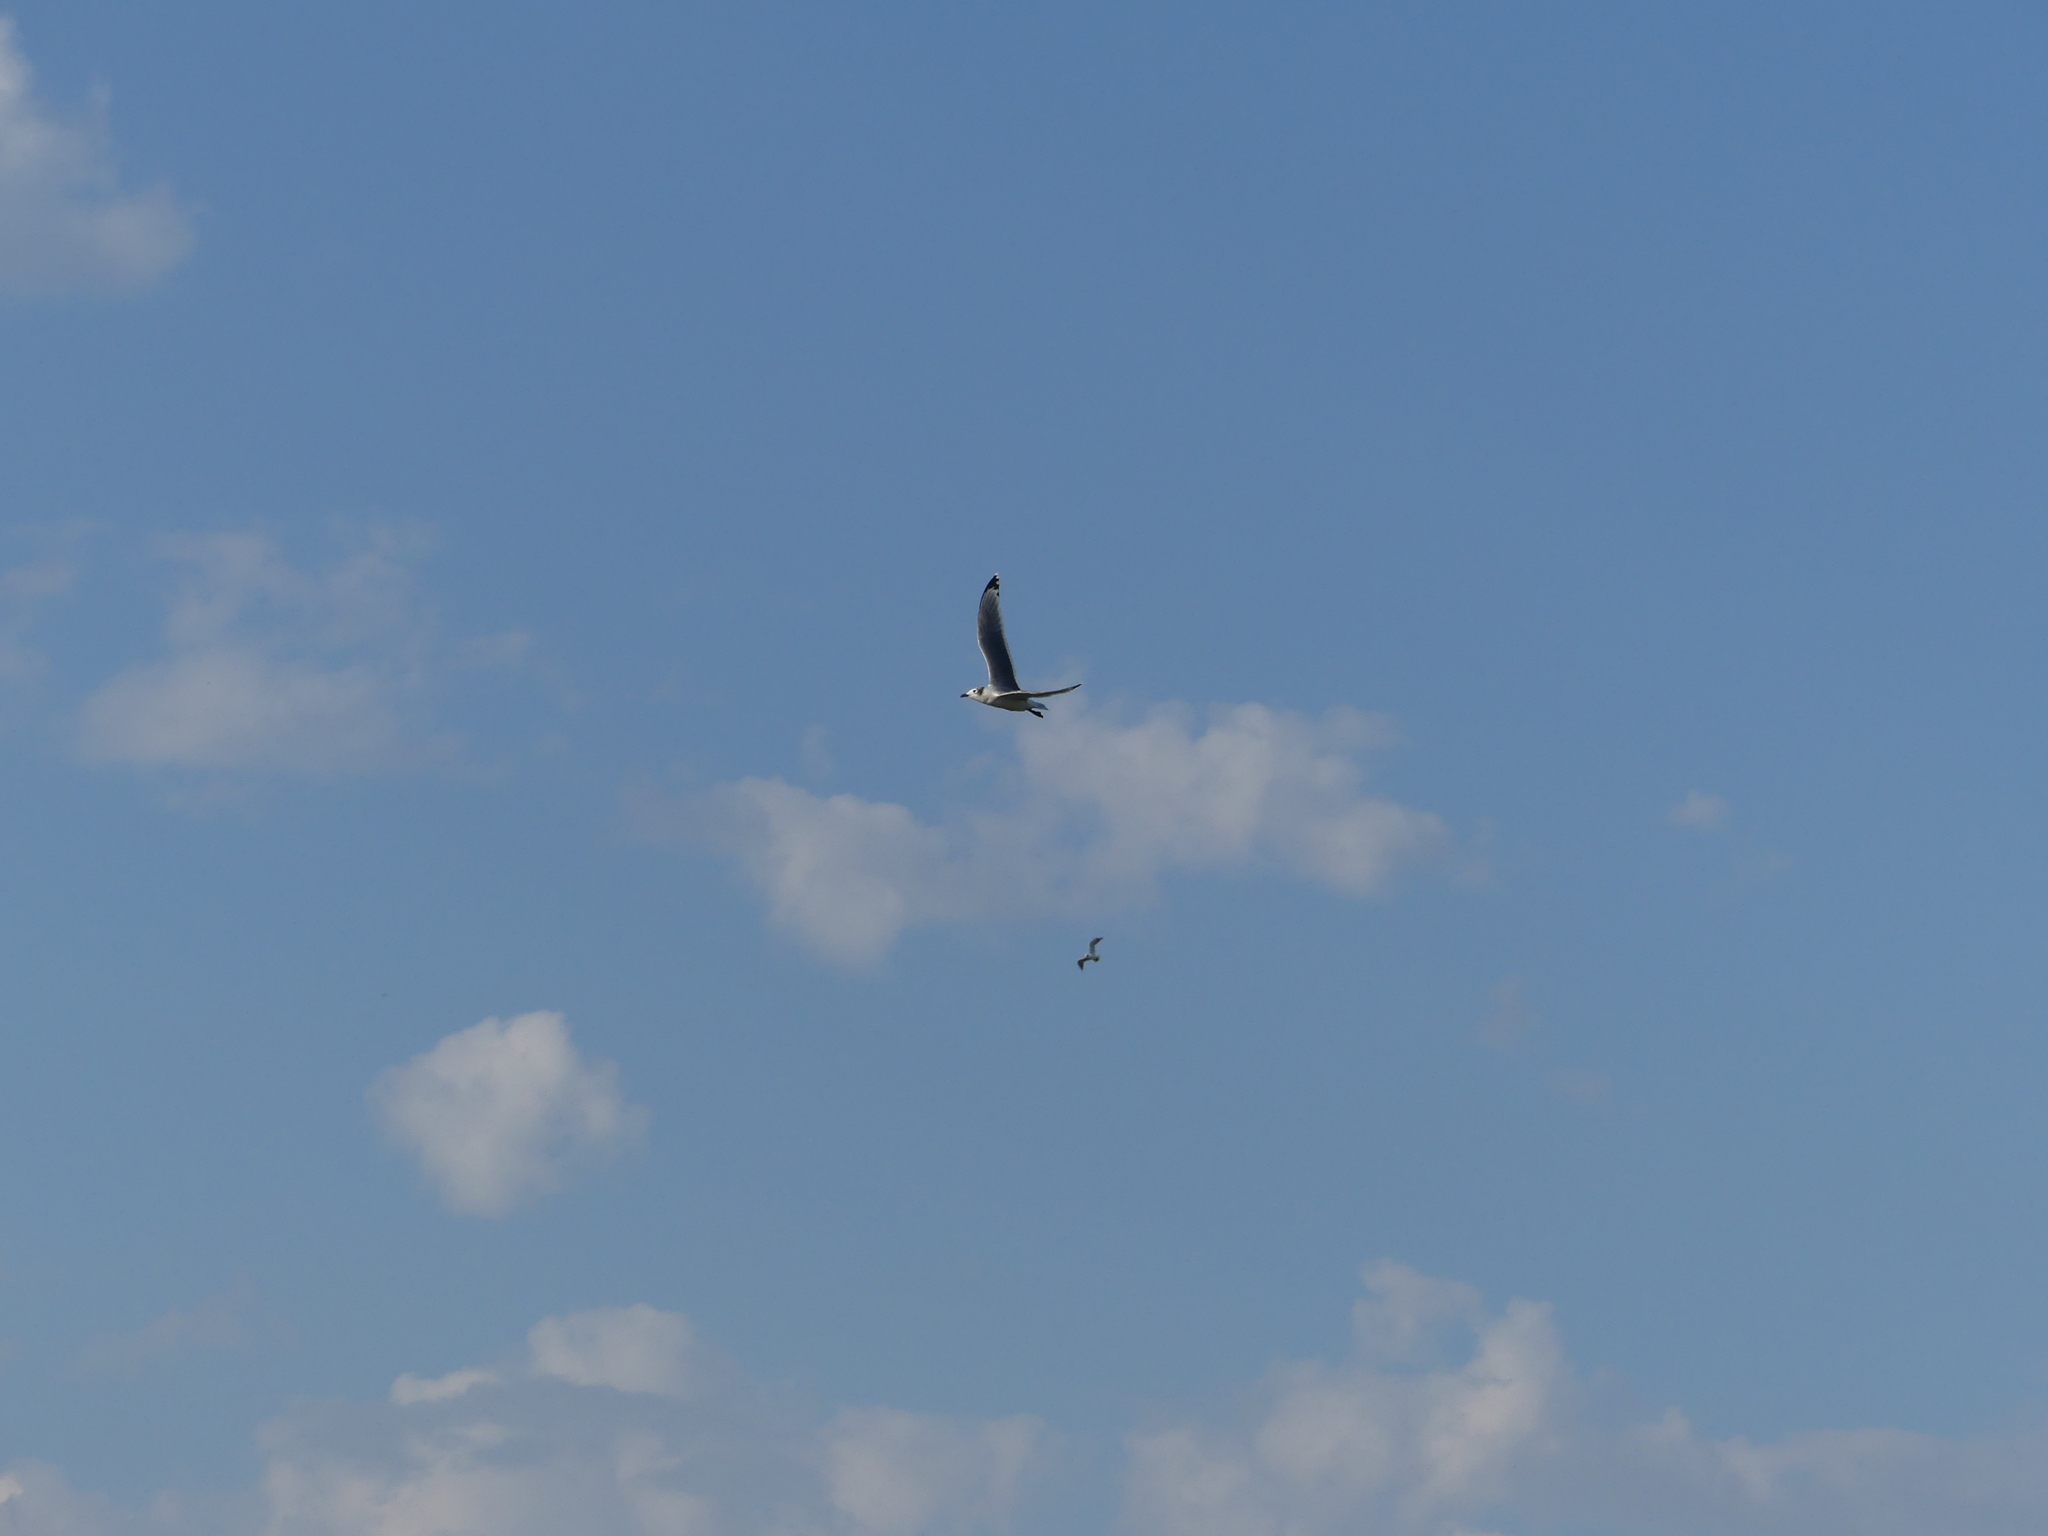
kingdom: Animalia
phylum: Chordata
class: Aves
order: Charadriiformes
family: Laridae
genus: Leucophaeus
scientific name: Leucophaeus pipixcan
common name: Franklin's gull
